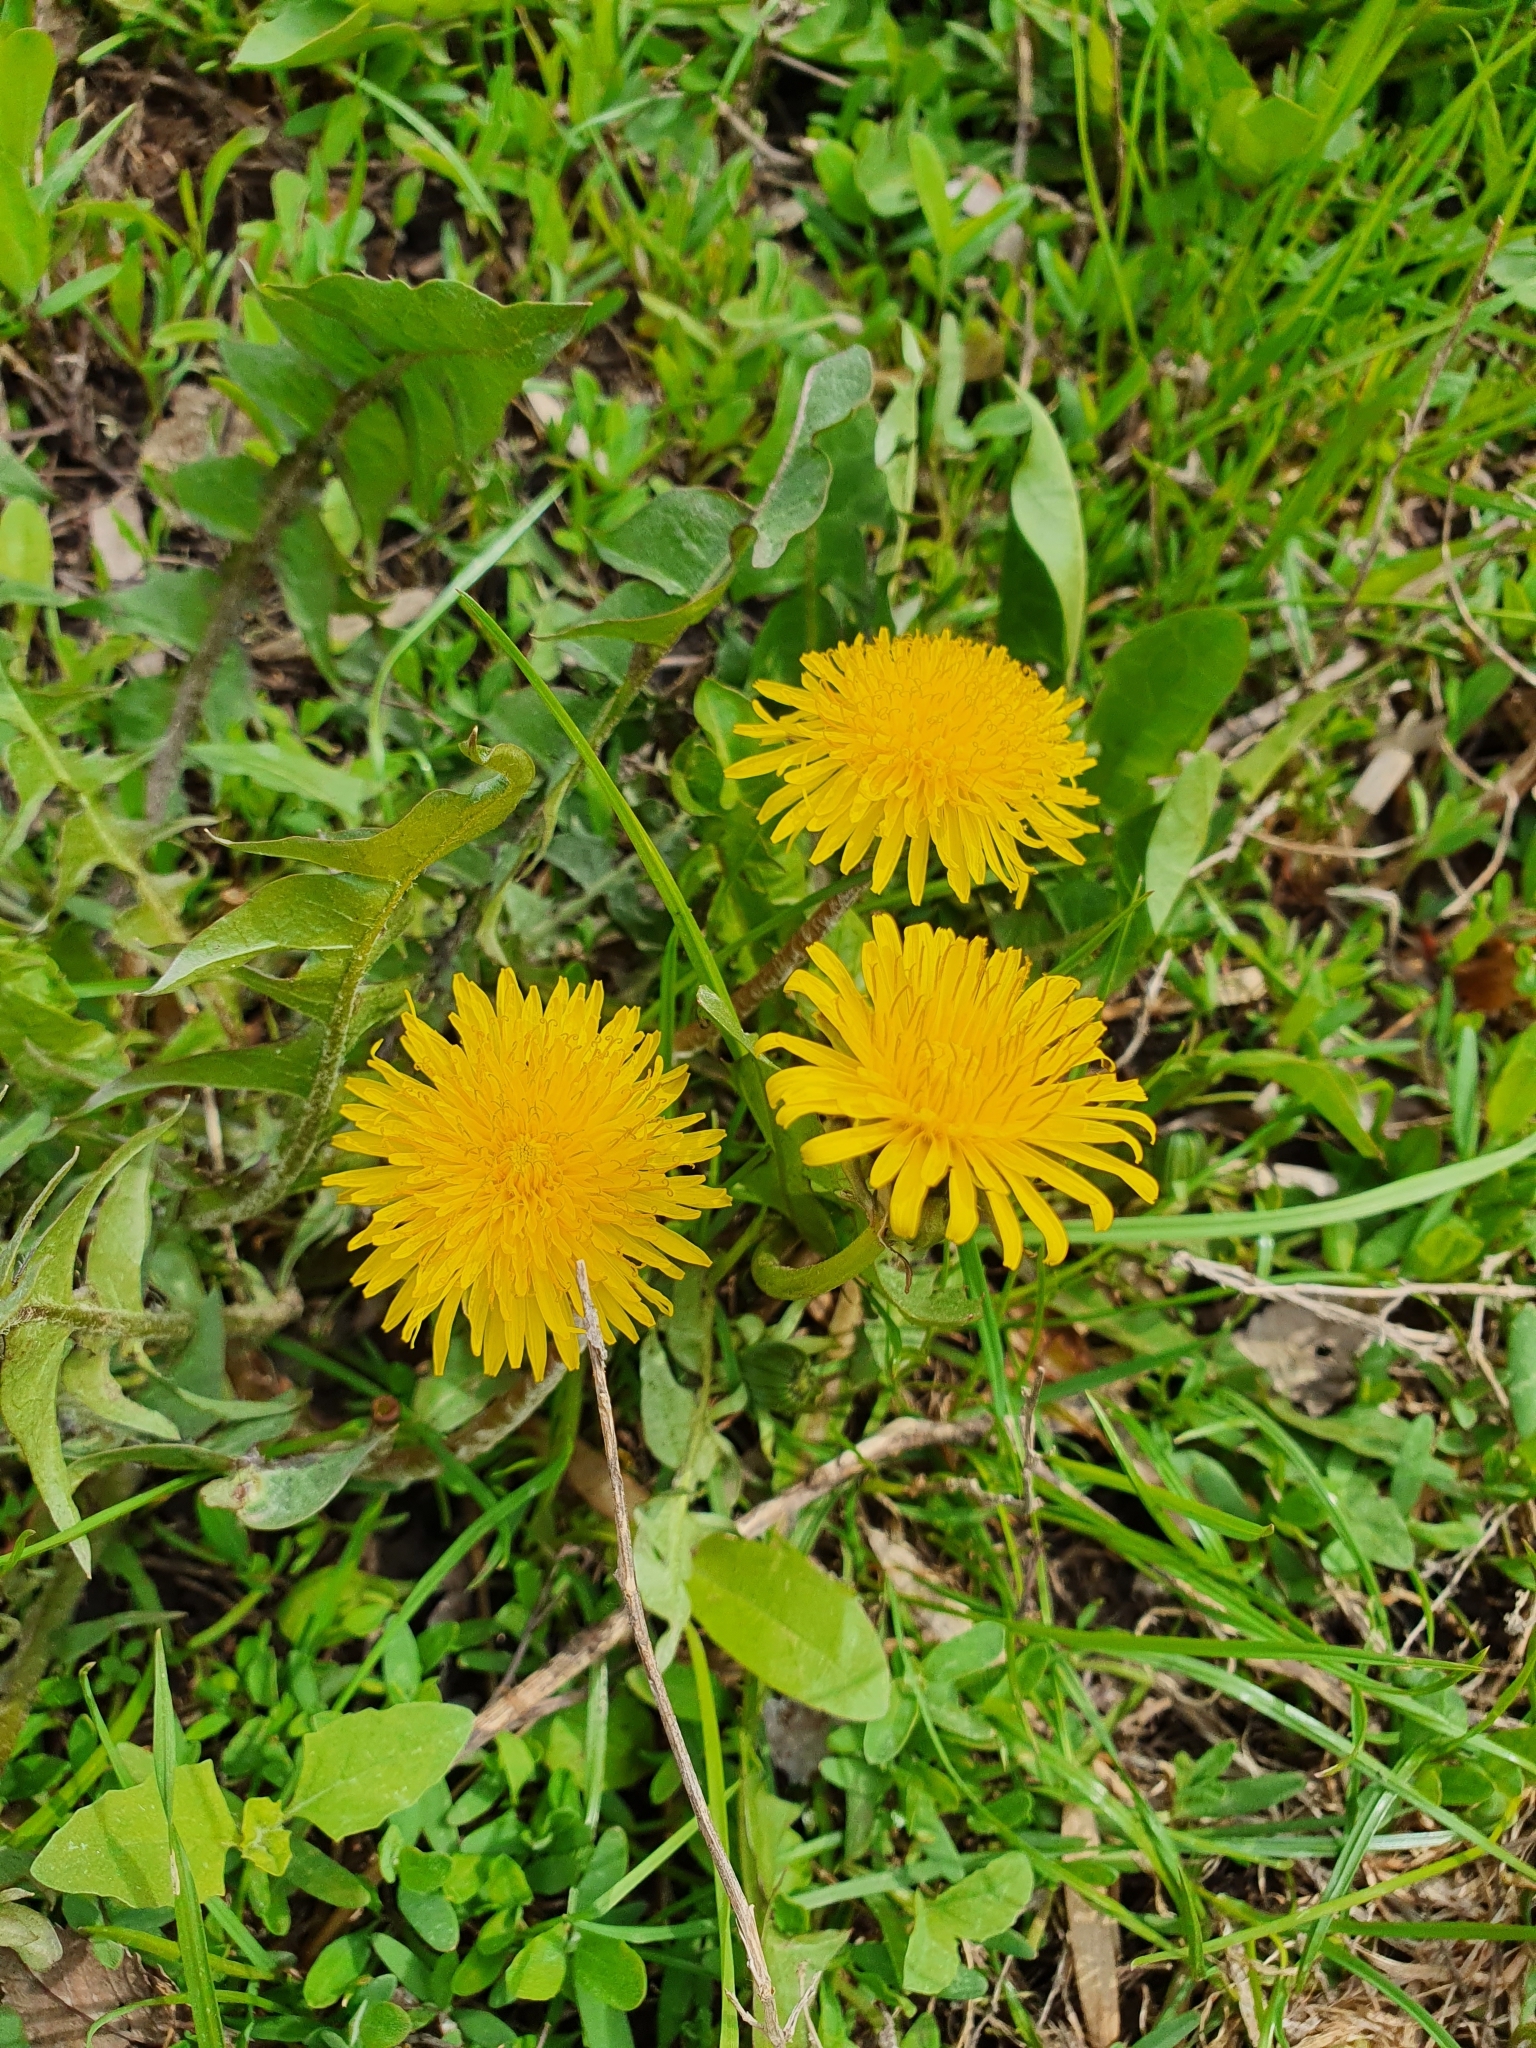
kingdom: Plantae
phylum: Tracheophyta
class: Magnoliopsida
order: Asterales
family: Asteraceae
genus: Taraxacum
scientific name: Taraxacum officinale
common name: Common dandelion
